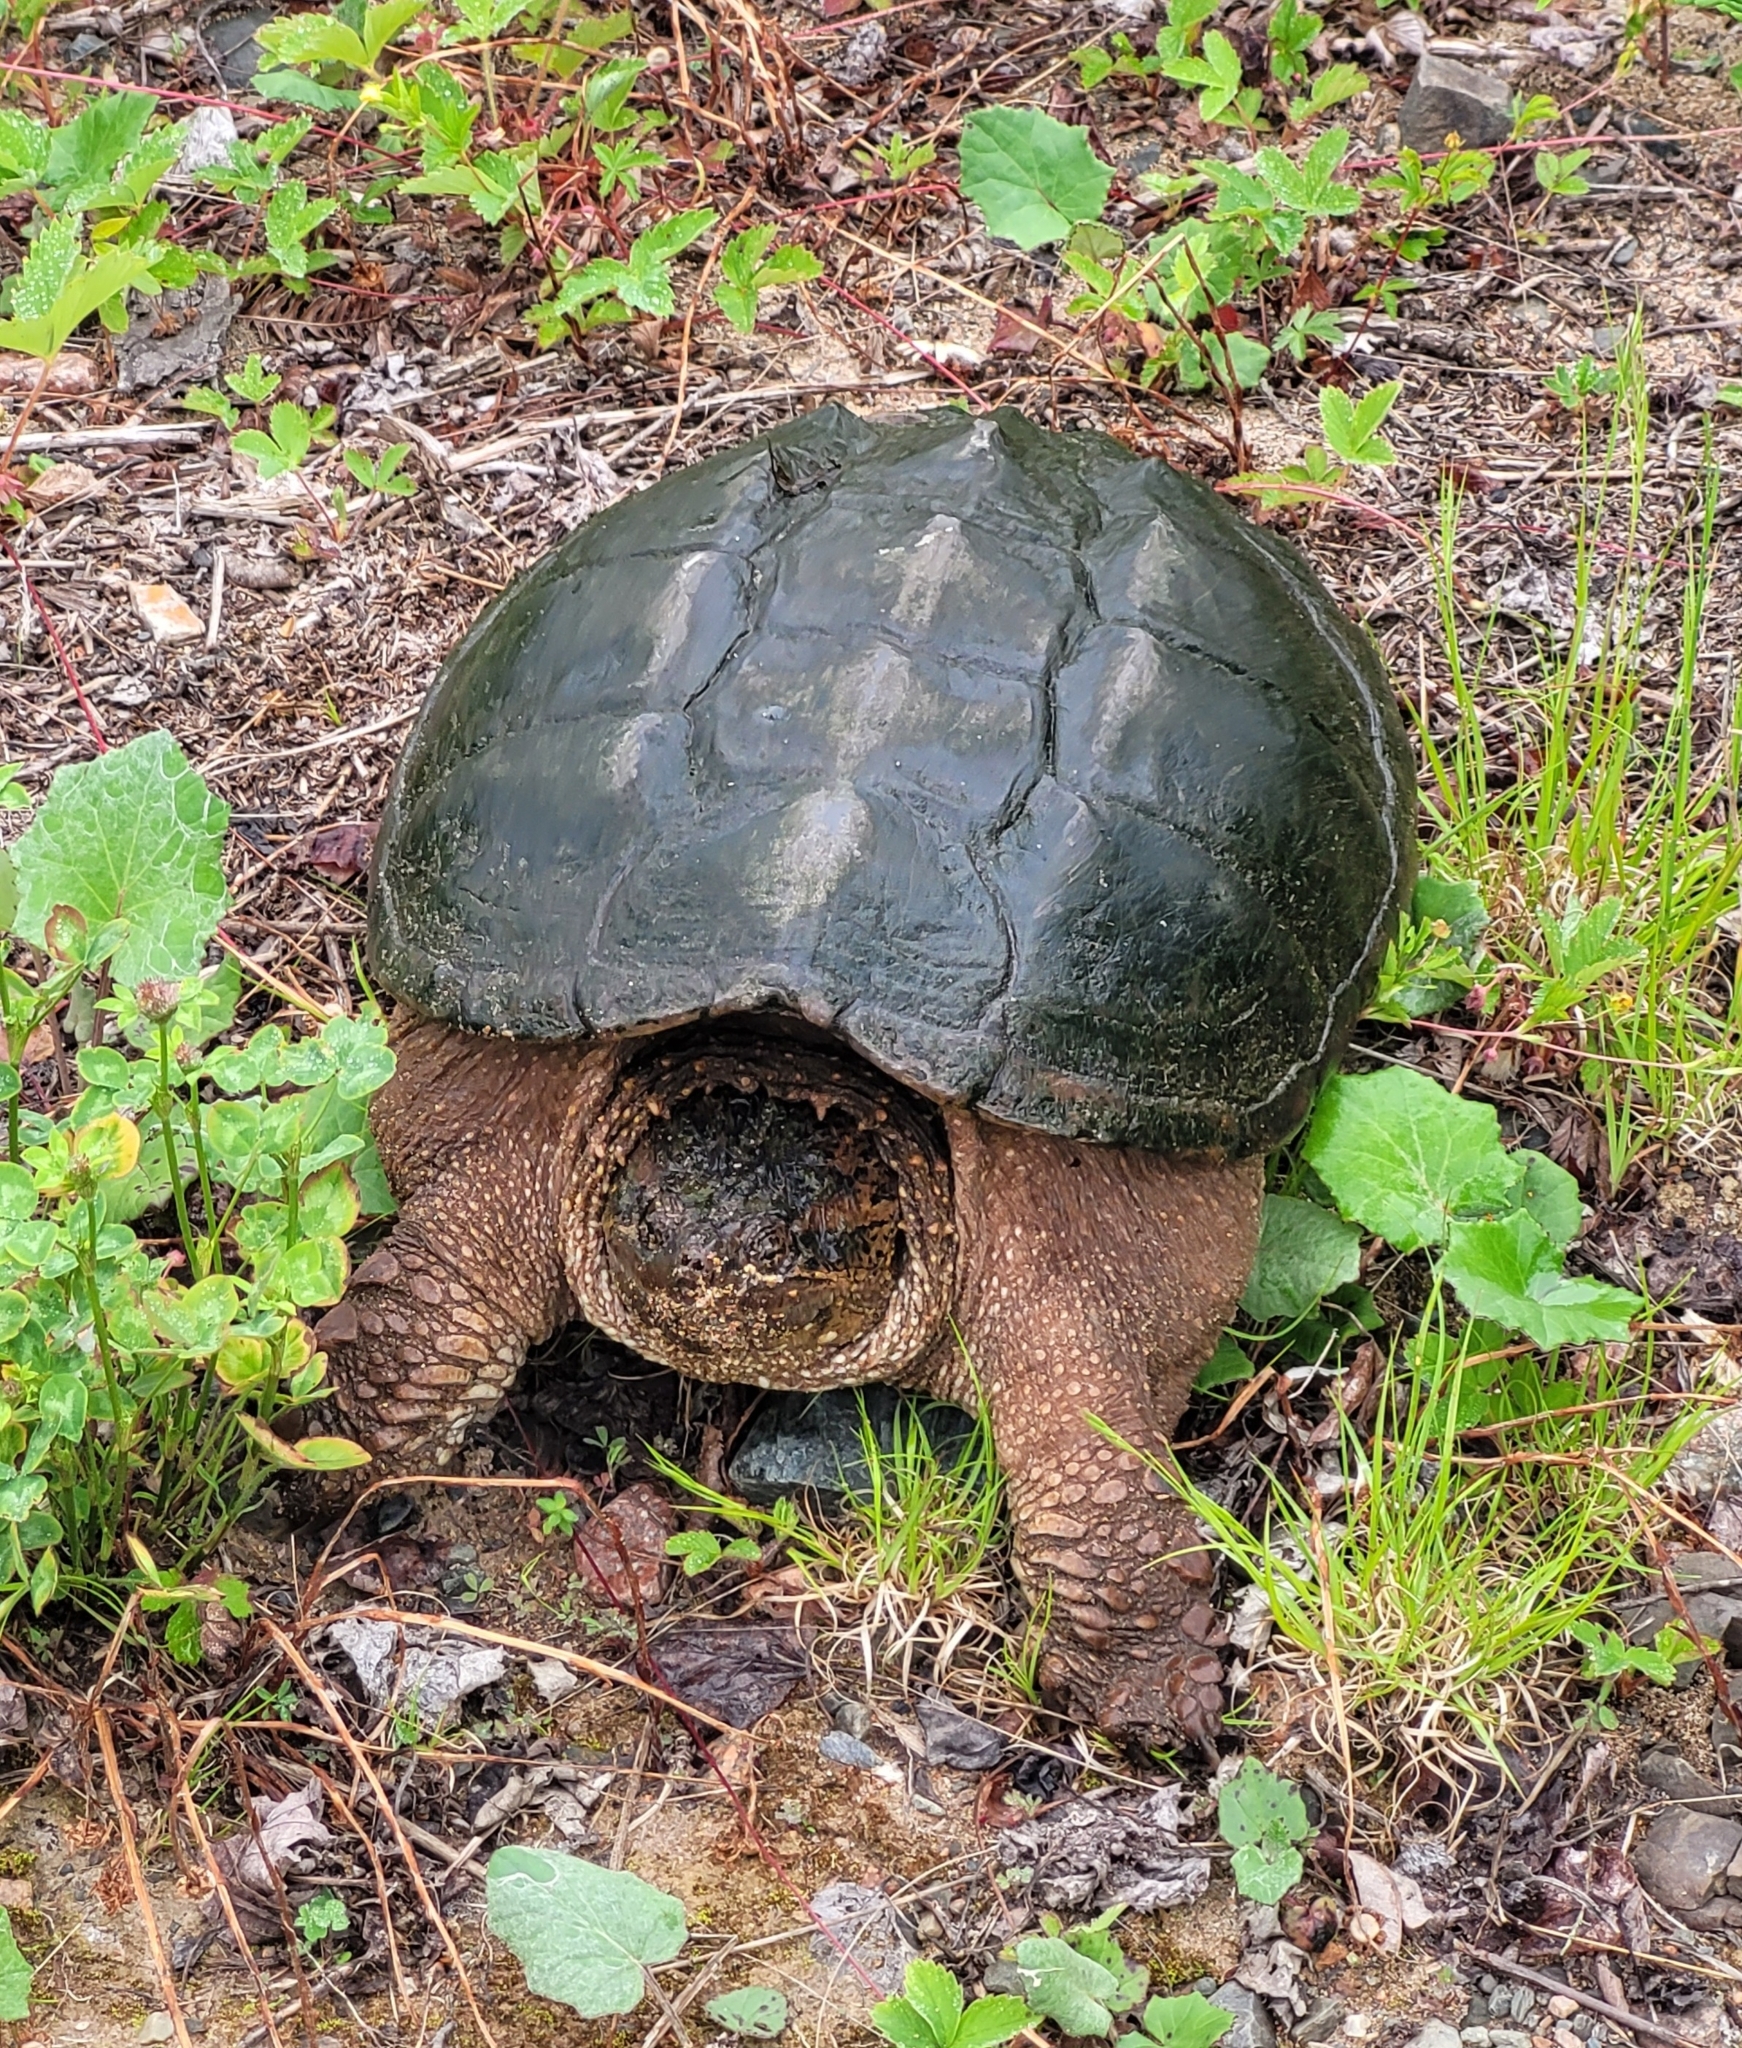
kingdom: Animalia
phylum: Chordata
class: Testudines
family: Chelydridae
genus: Chelydra
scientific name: Chelydra serpentina
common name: Common snapping turtle
